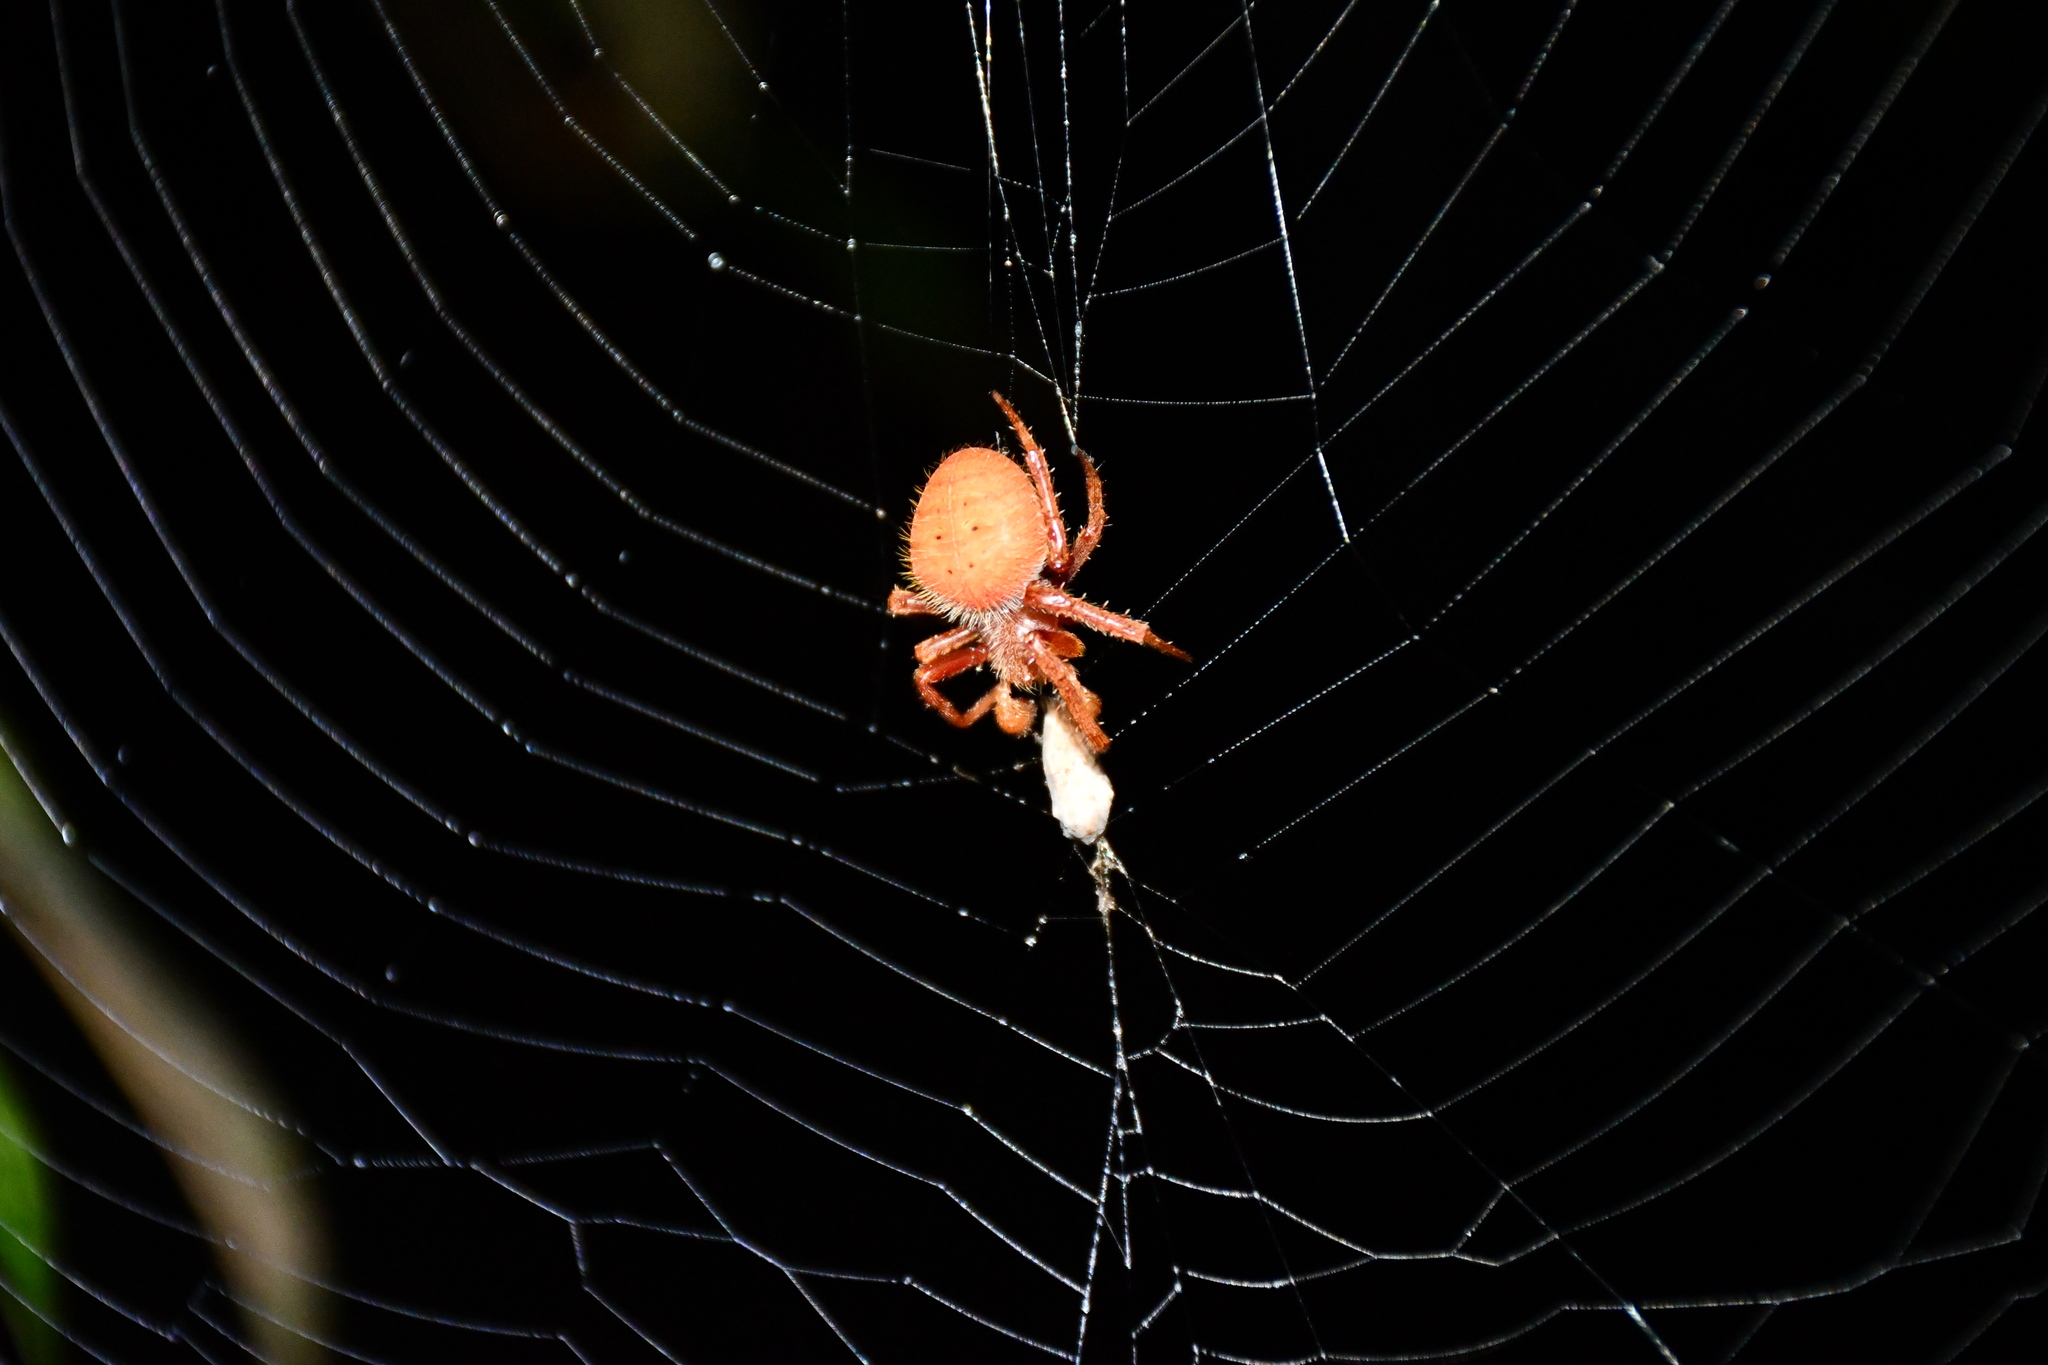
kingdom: Animalia
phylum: Arthropoda
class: Arachnida
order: Araneae
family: Araneidae
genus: Eriophora
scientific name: Eriophora fuliginea
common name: Orb weavers
